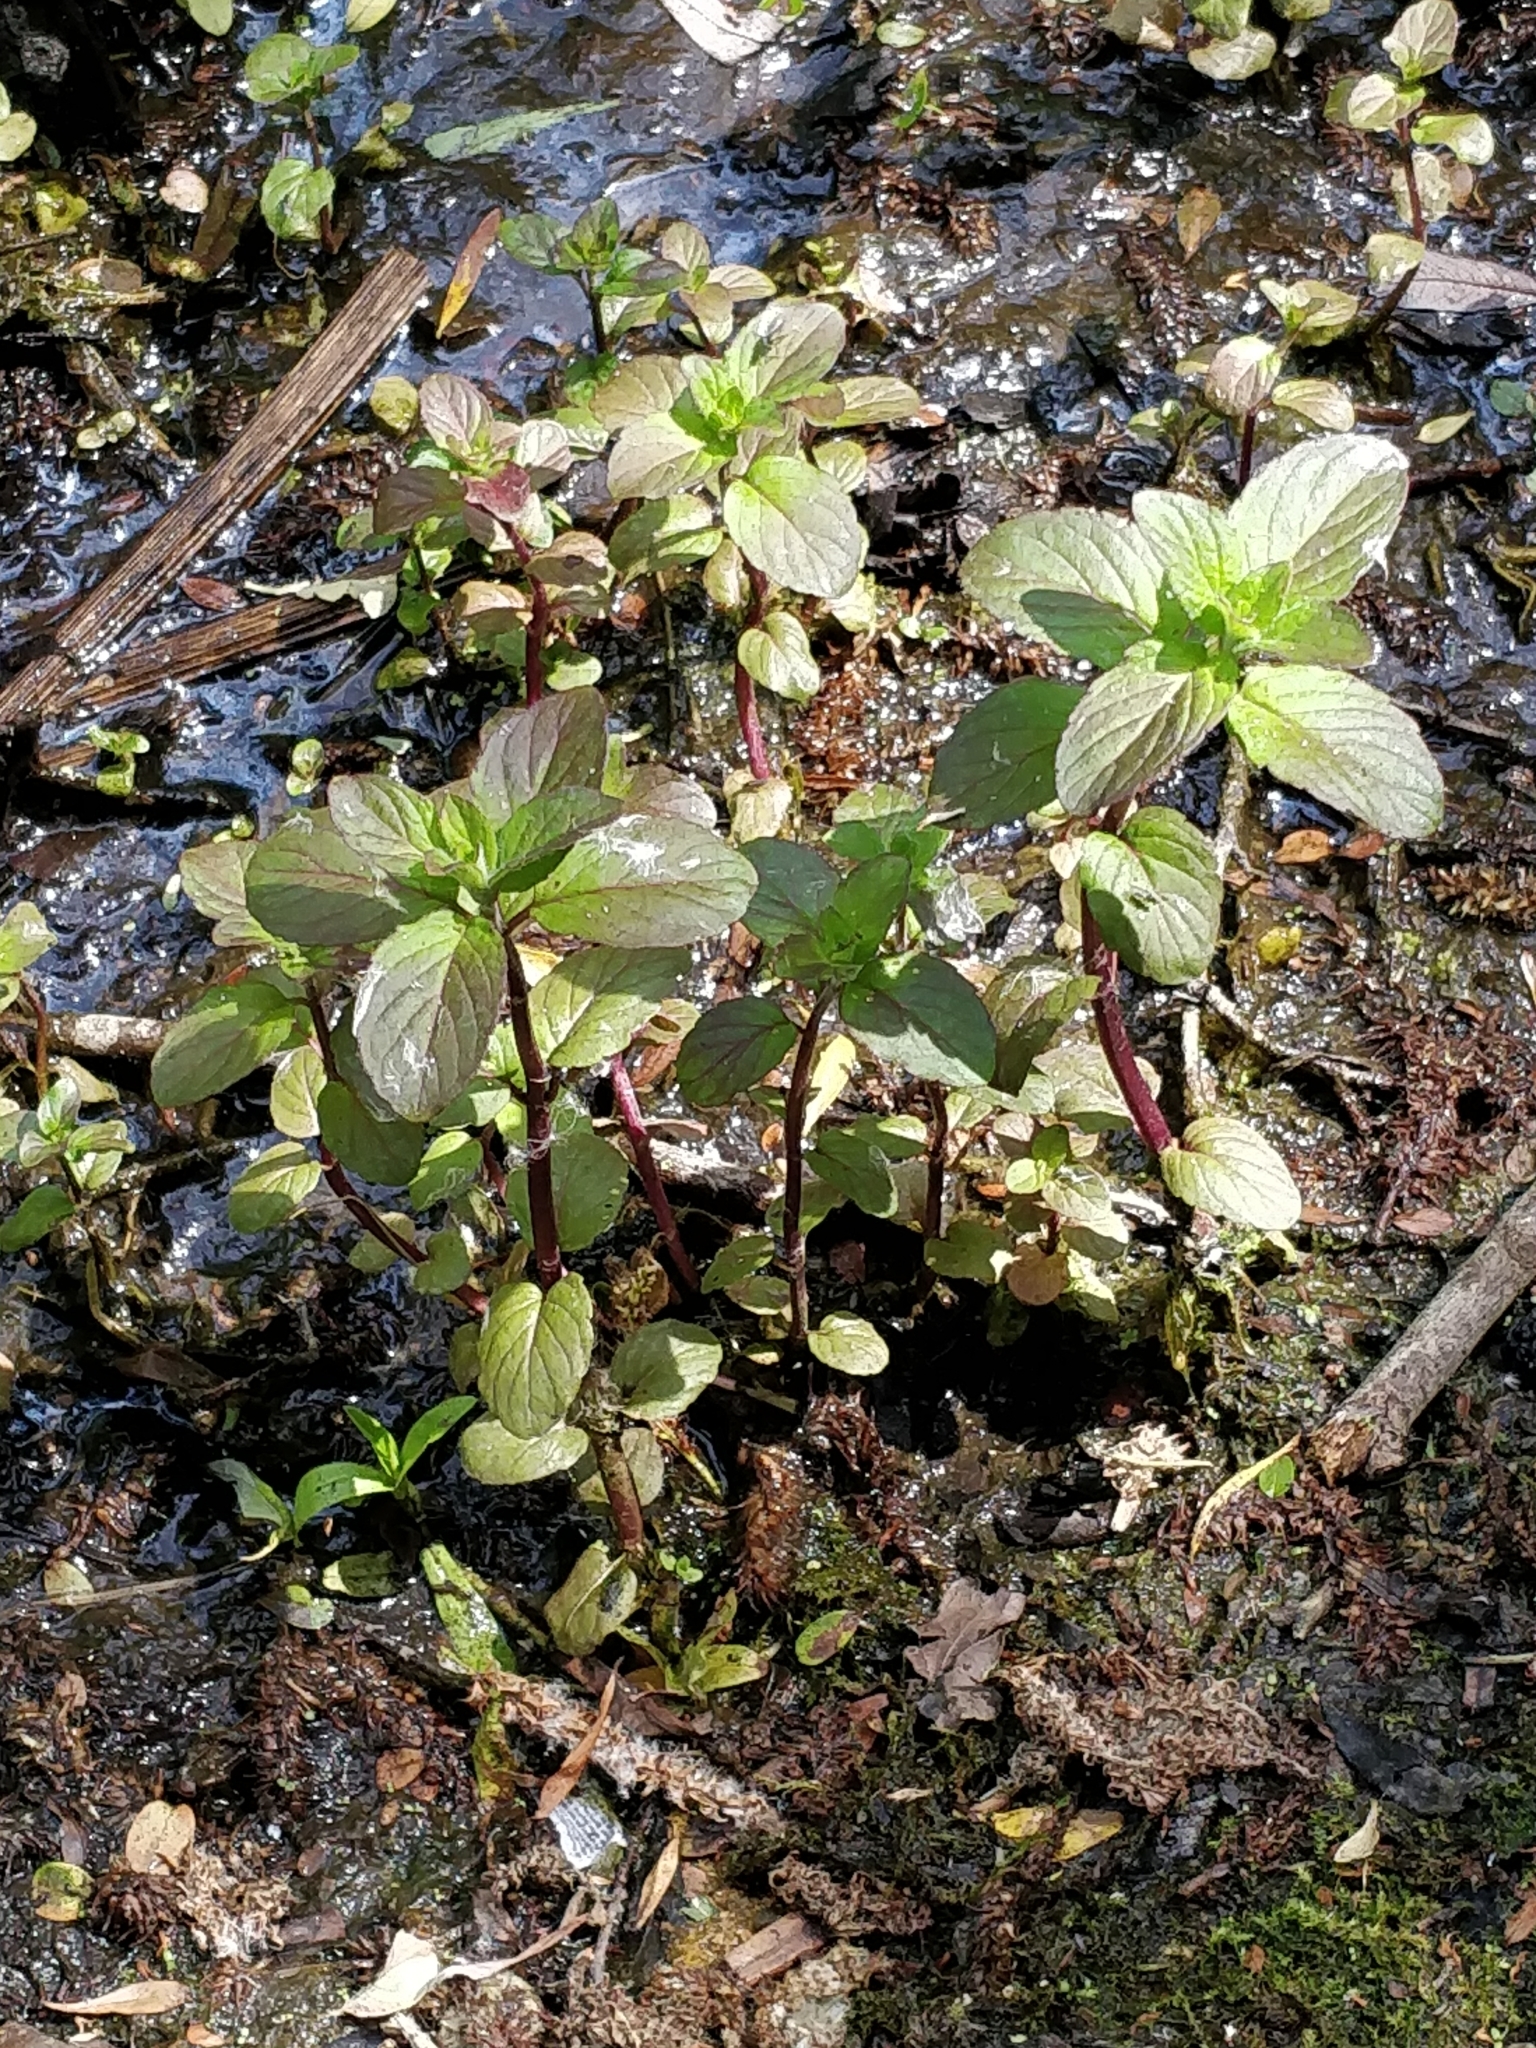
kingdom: Plantae
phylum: Tracheophyta
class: Magnoliopsida
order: Lamiales
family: Plantaginaceae
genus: Veronica
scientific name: Veronica beccabunga
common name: Brooklime
